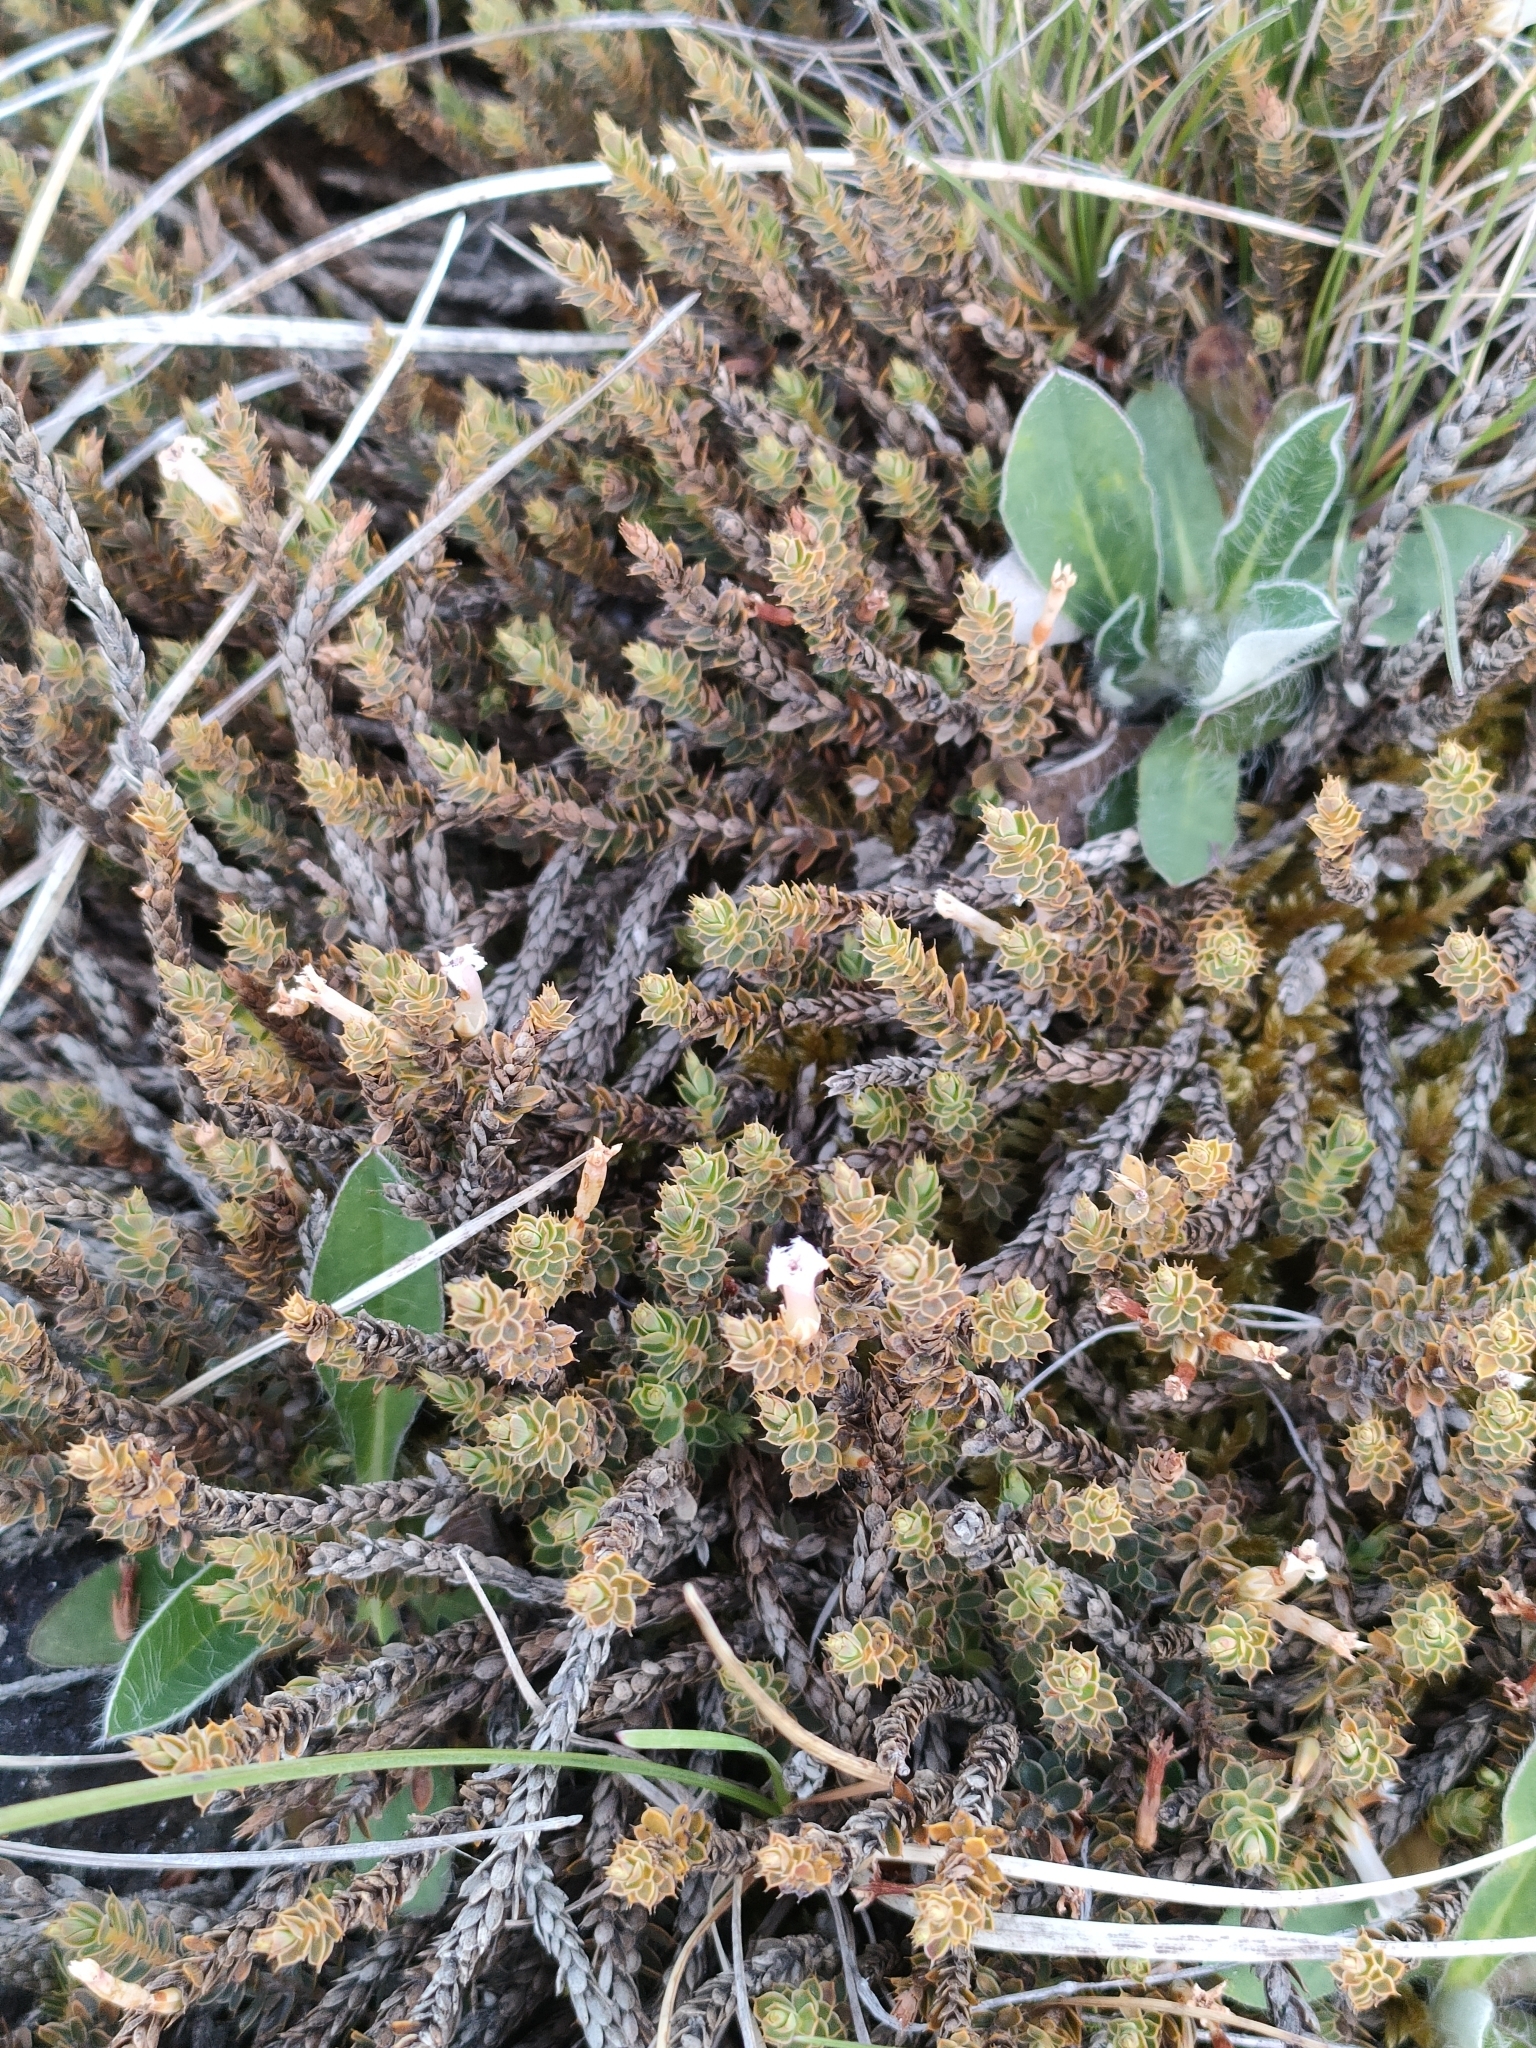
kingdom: Plantae
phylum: Tracheophyta
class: Magnoliopsida
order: Ericales
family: Ericaceae
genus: Styphelia
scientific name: Styphelia nesophila
